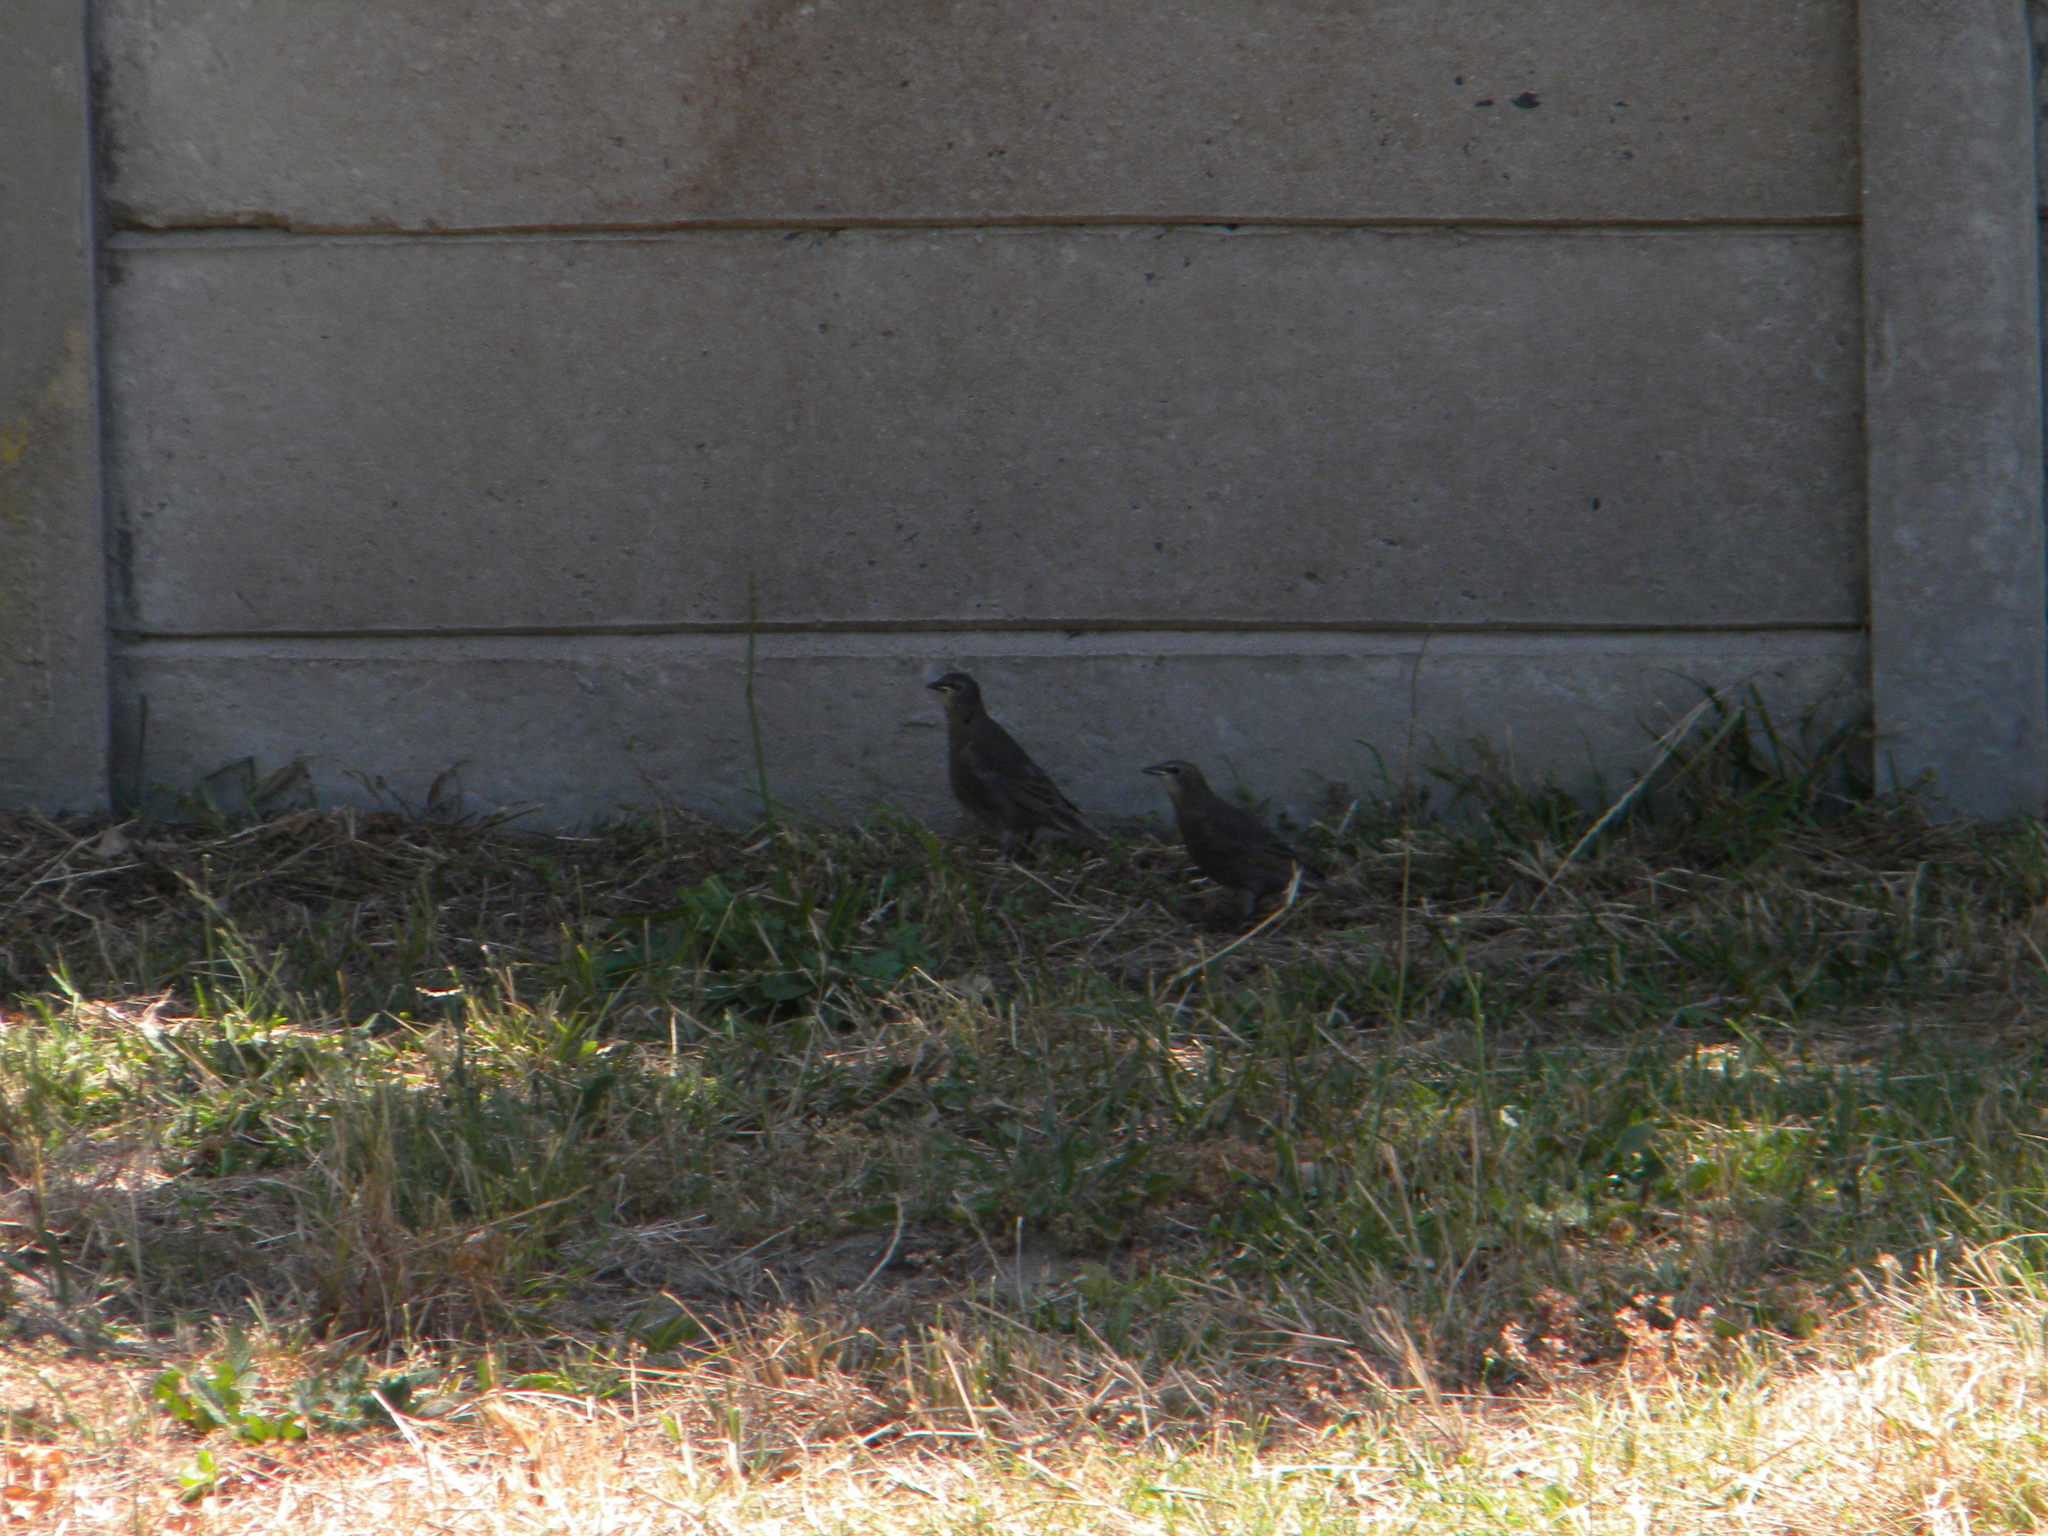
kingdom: Animalia
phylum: Chordata
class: Aves
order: Passeriformes
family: Sturnidae
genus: Sturnus
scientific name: Sturnus vulgaris
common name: Common starling
